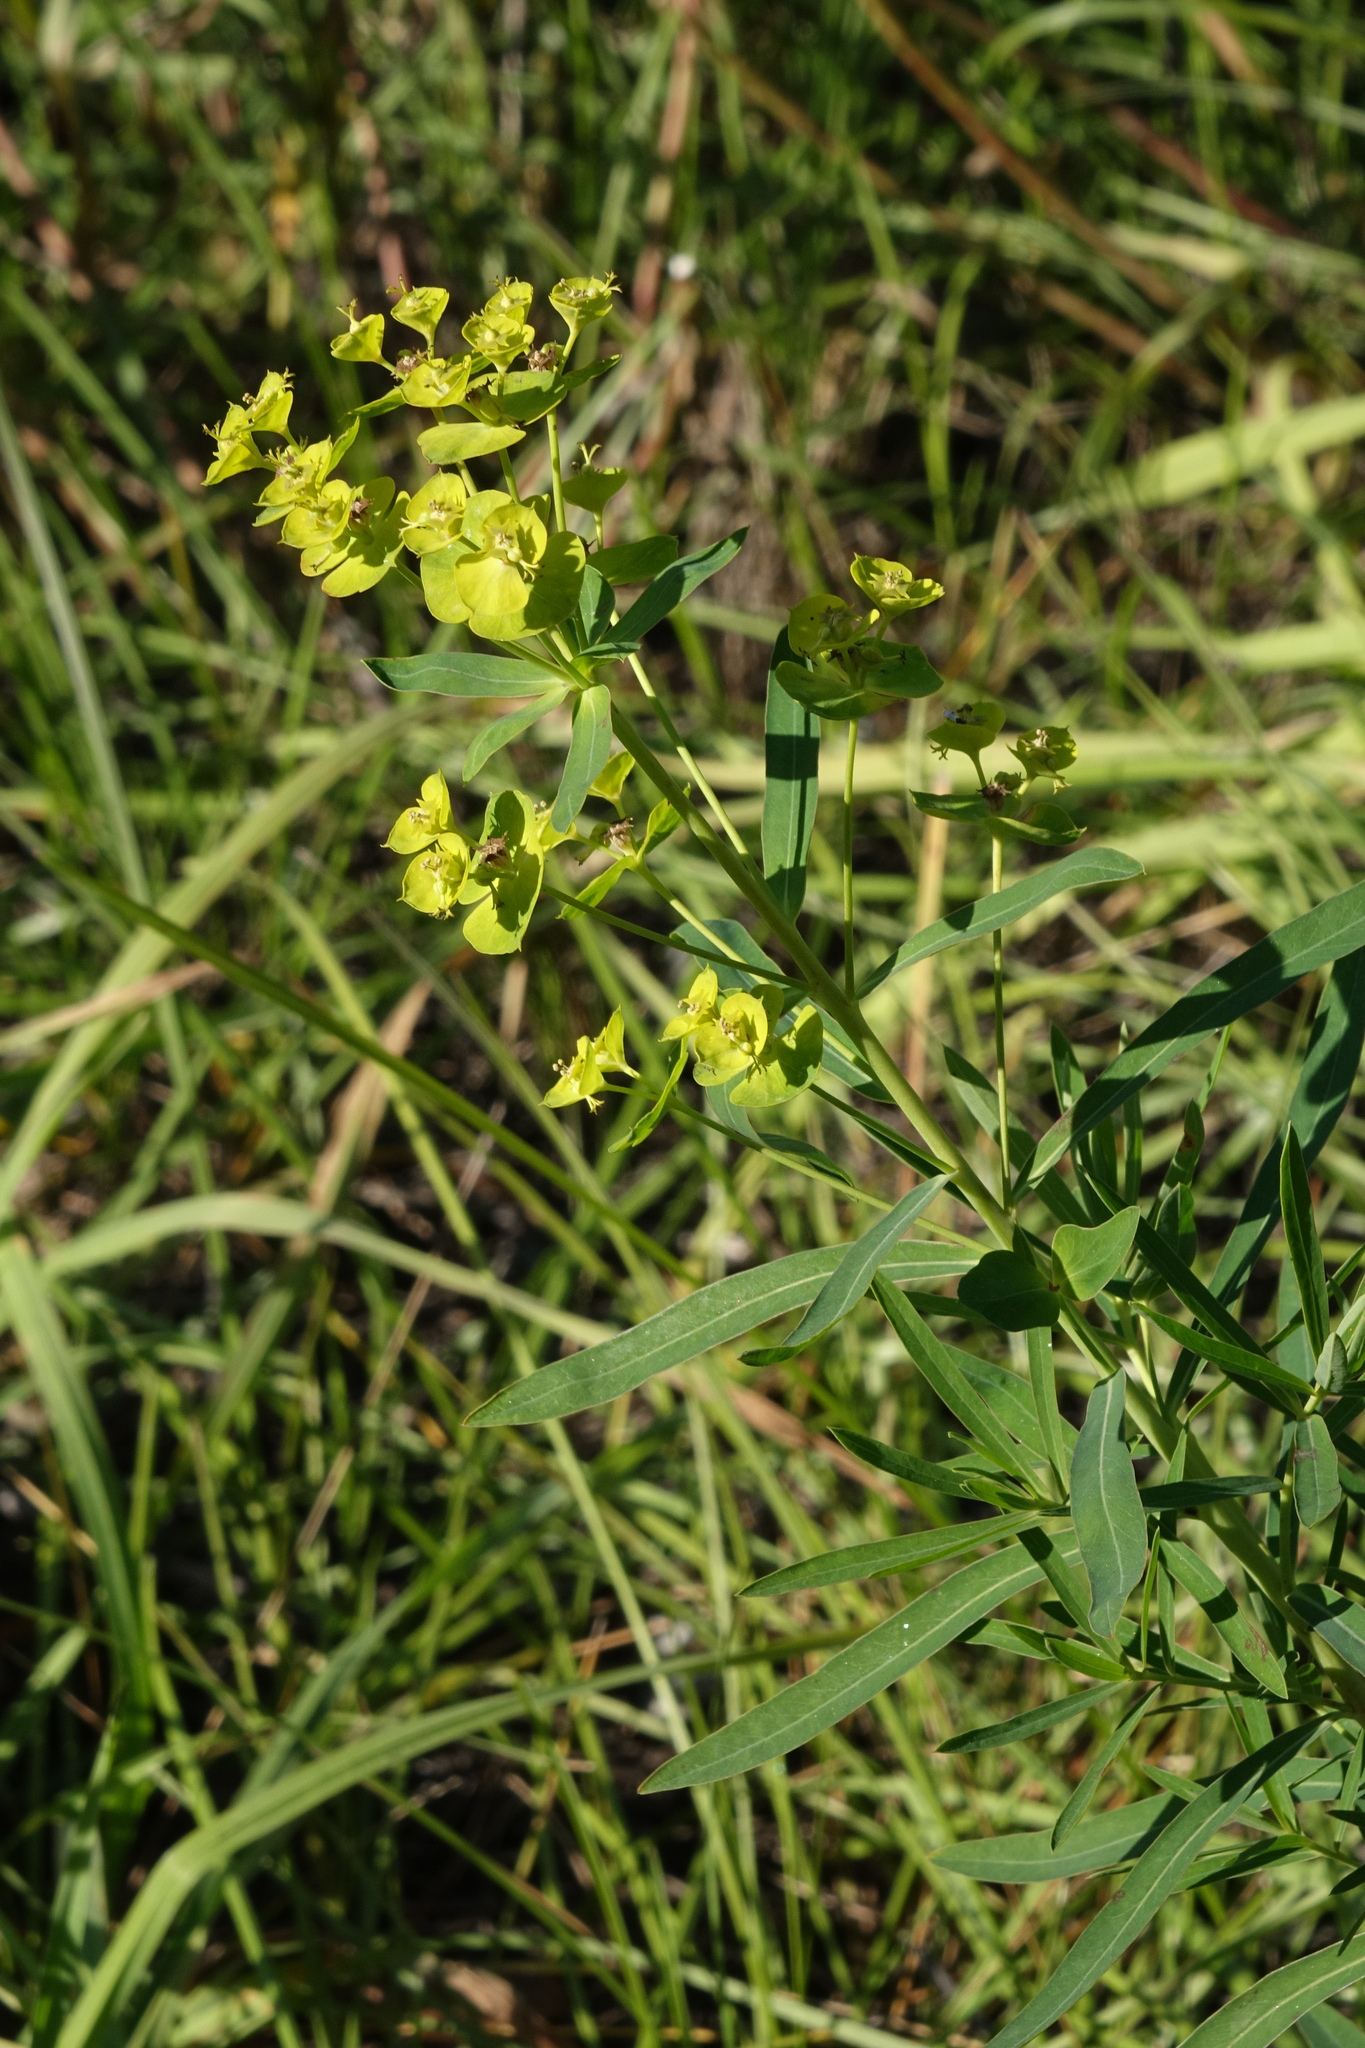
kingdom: Plantae
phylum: Tracheophyta
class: Magnoliopsida
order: Malpighiales
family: Euphorbiaceae
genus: Euphorbia
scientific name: Euphorbia virgata
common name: Leafy spurge
